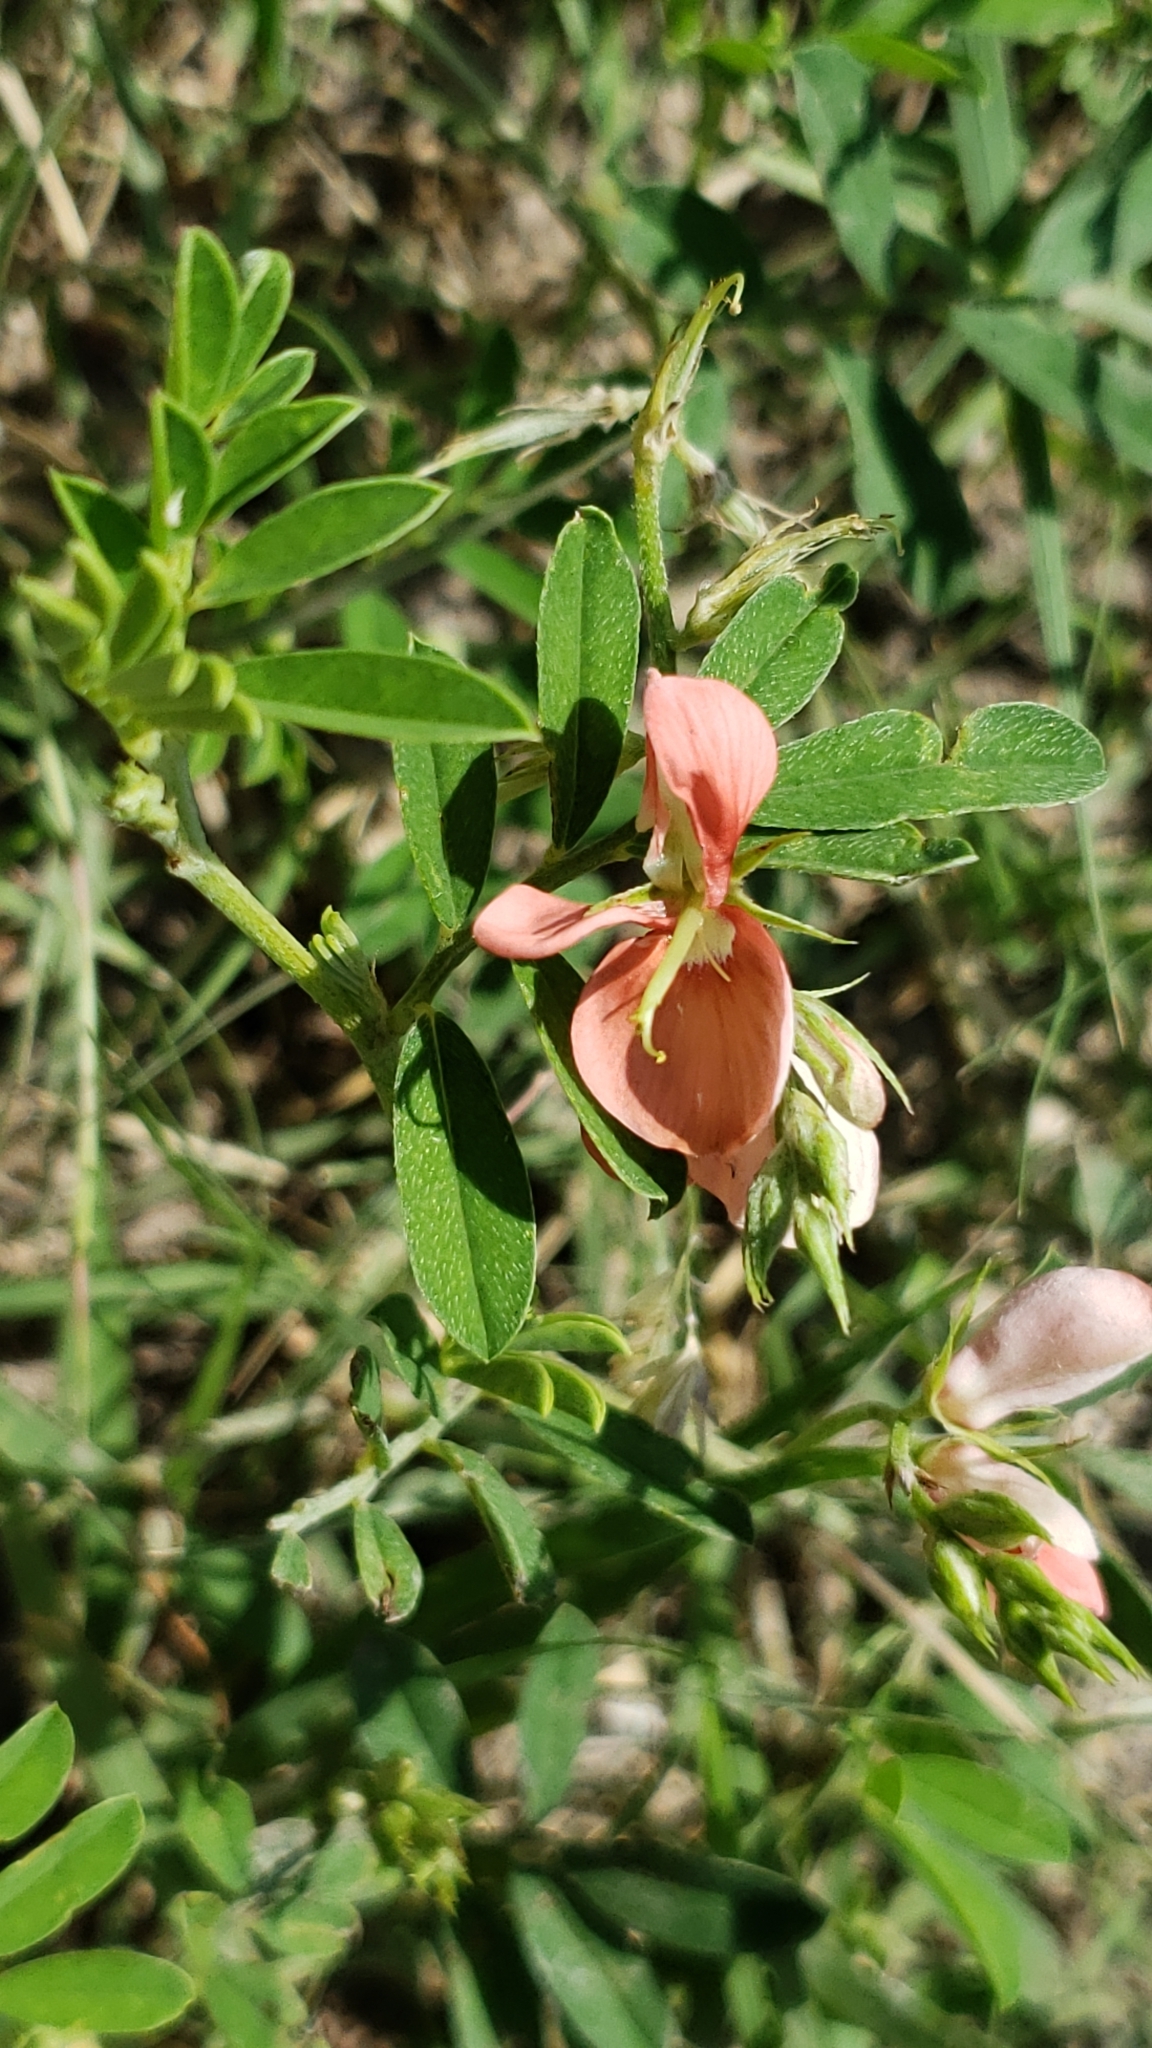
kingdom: Plantae
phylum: Tracheophyta
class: Magnoliopsida
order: Fabales
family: Fabaceae
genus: Indigofera
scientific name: Indigofera miniata
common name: Coast indigo
